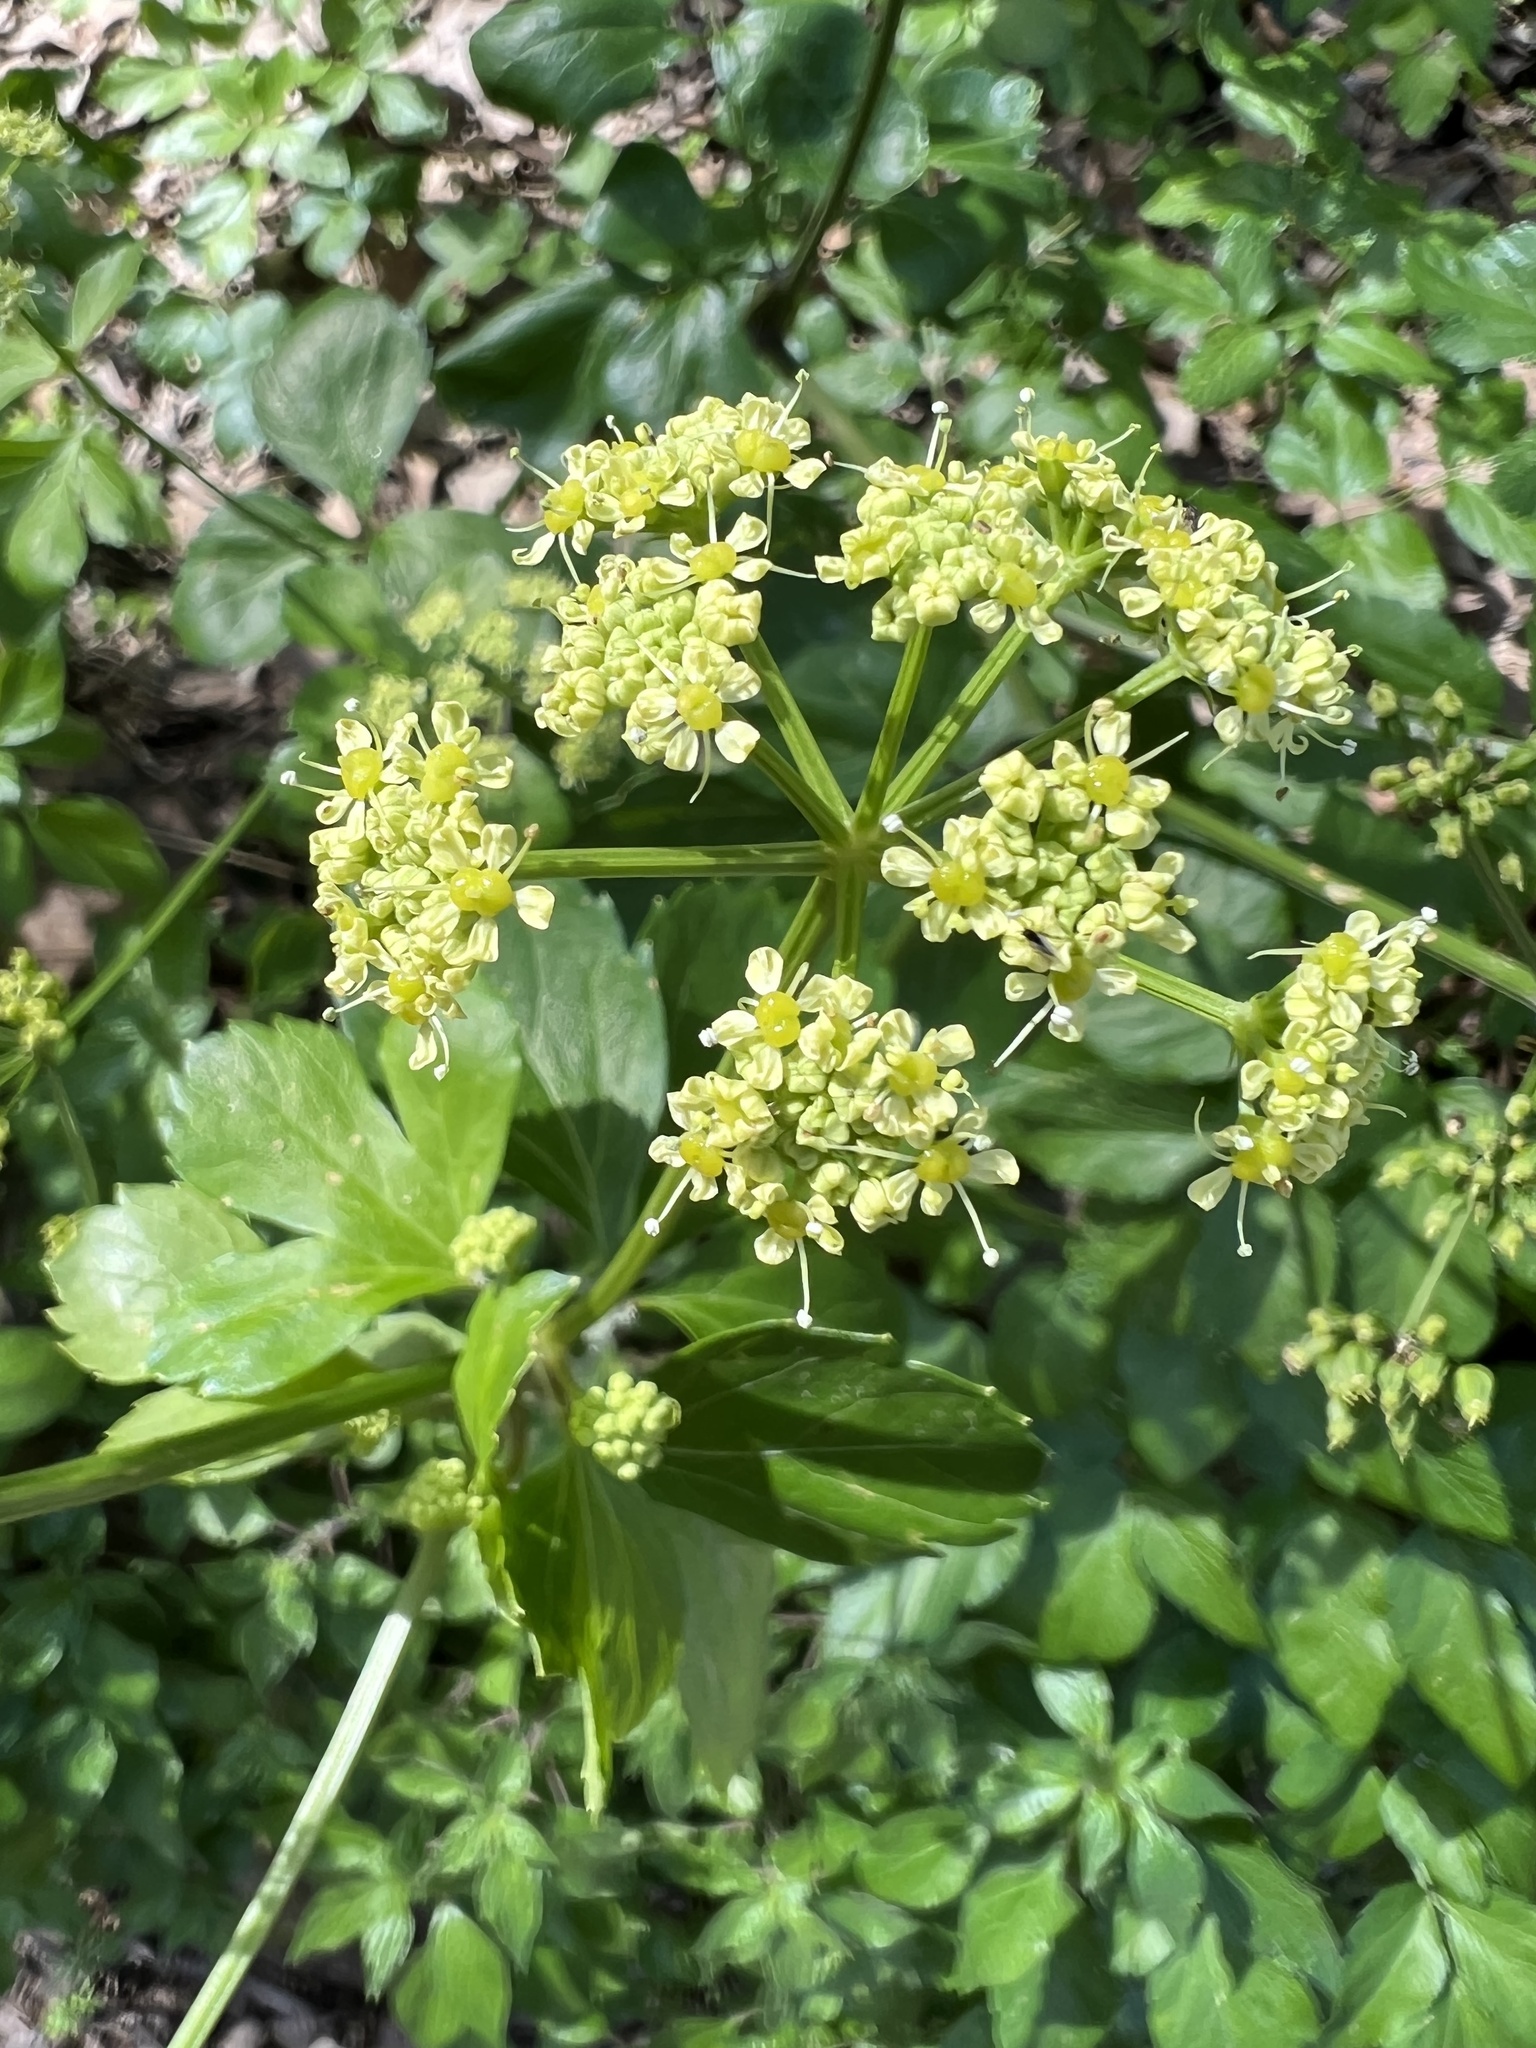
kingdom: Plantae
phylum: Tracheophyta
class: Magnoliopsida
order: Apiales
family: Apiaceae
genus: Smyrnium
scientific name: Smyrnium olusatrum
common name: Alexanders
